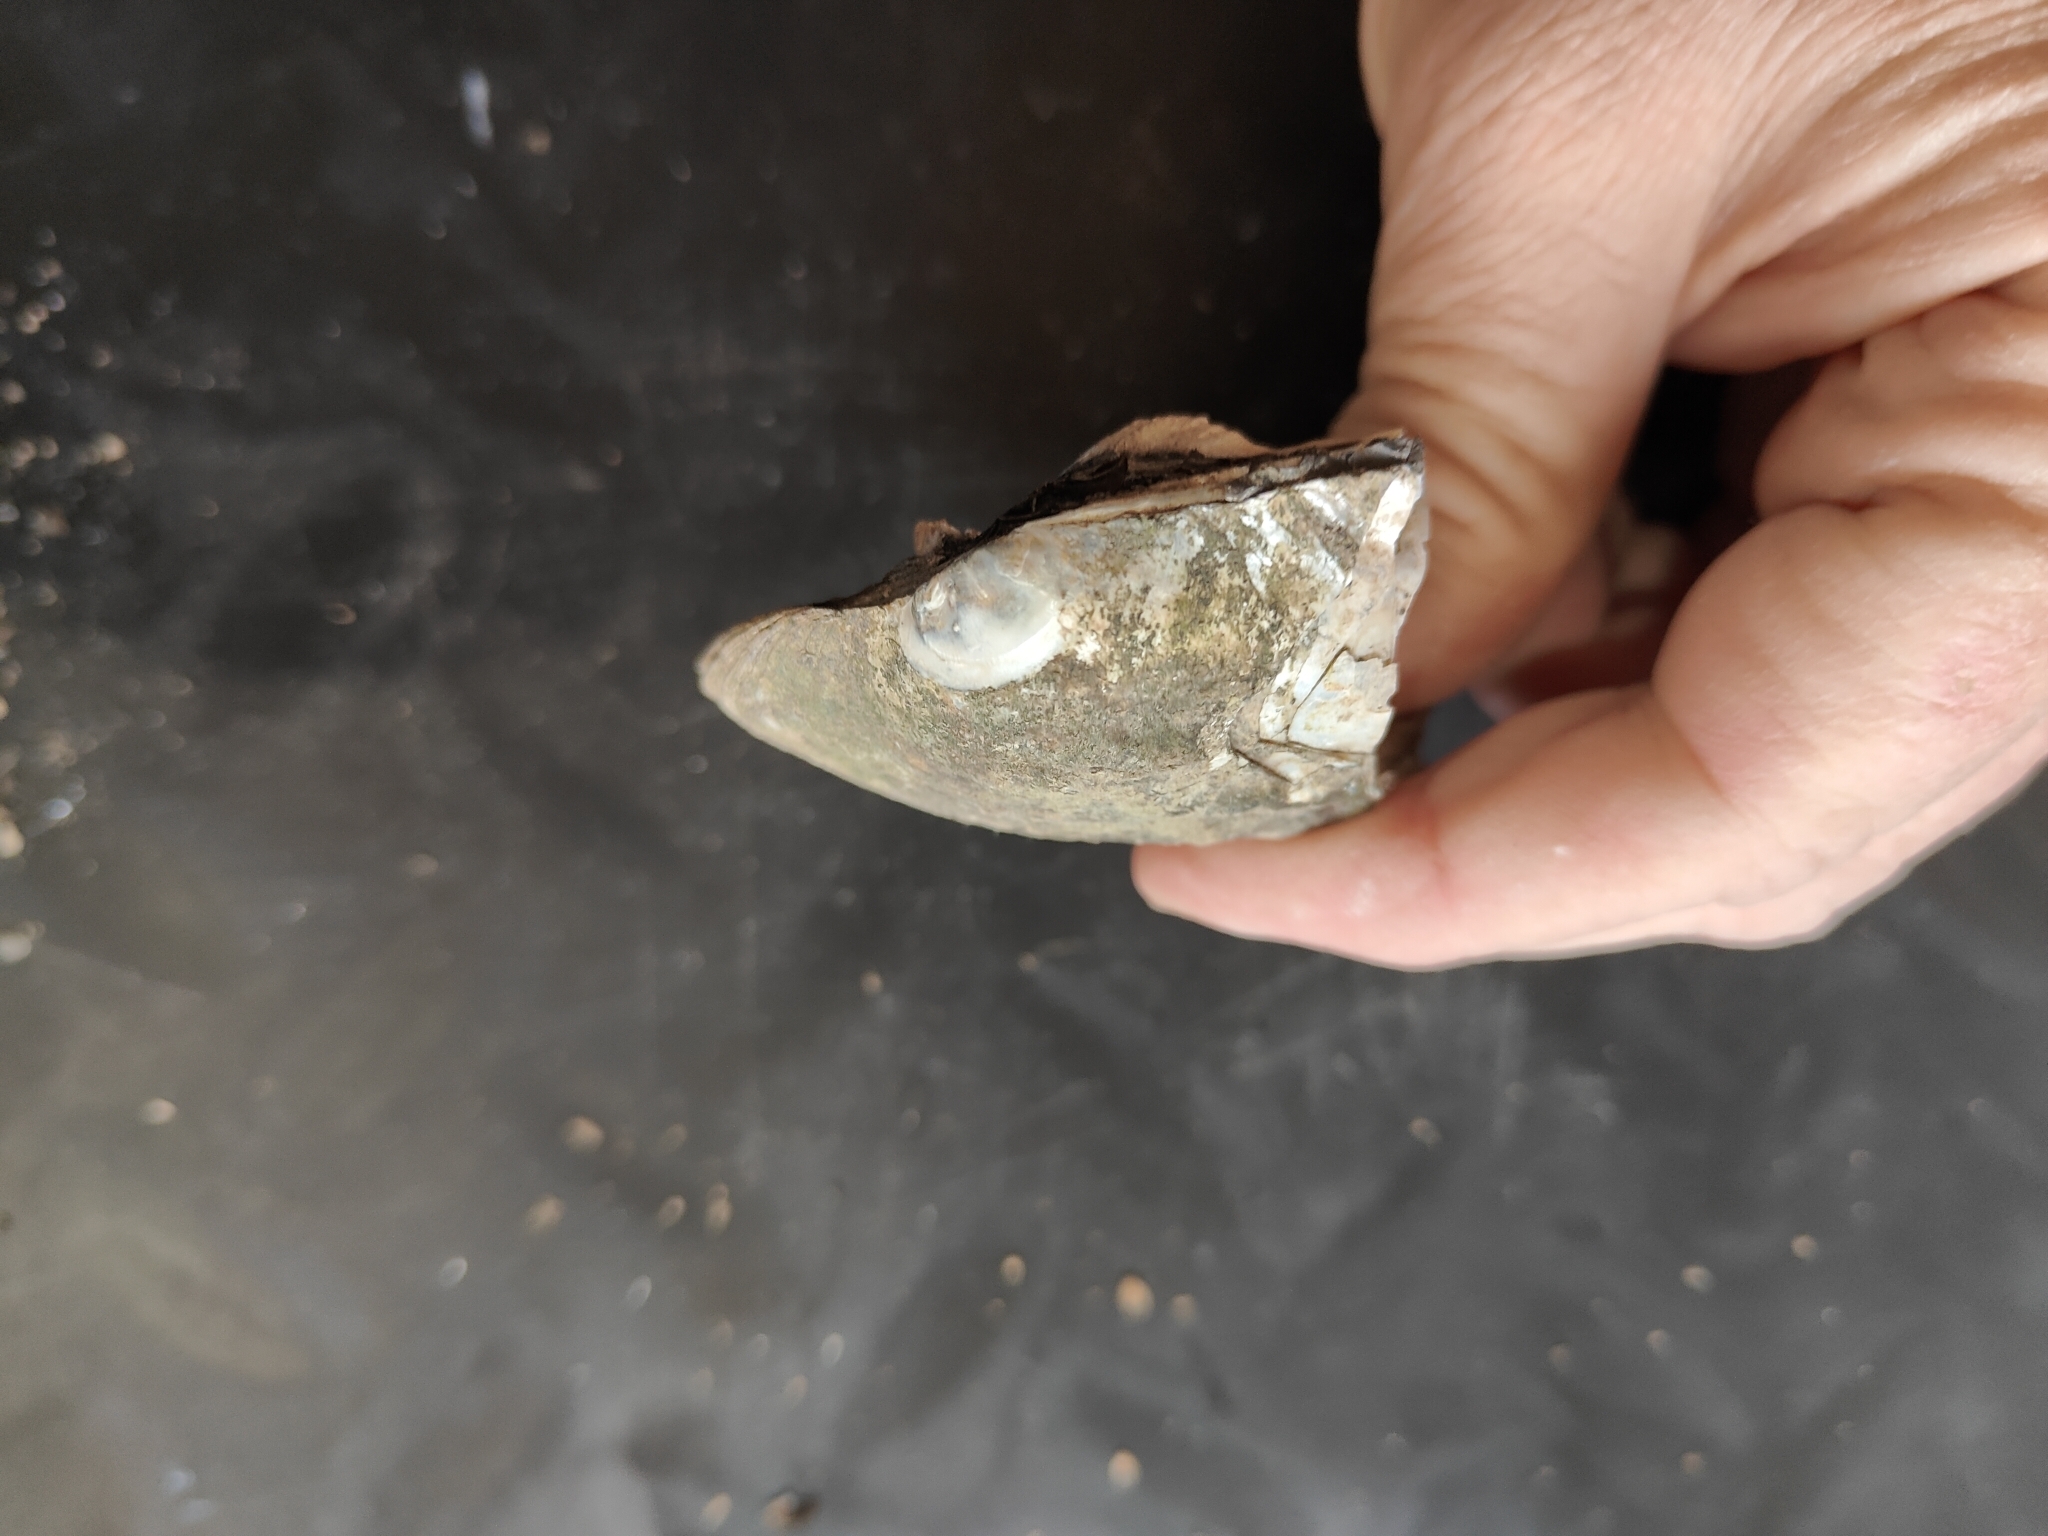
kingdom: Animalia
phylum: Mollusca
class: Bivalvia
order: Unionida
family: Unionidae
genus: Amblema
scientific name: Amblema plicata
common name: Threeridge
